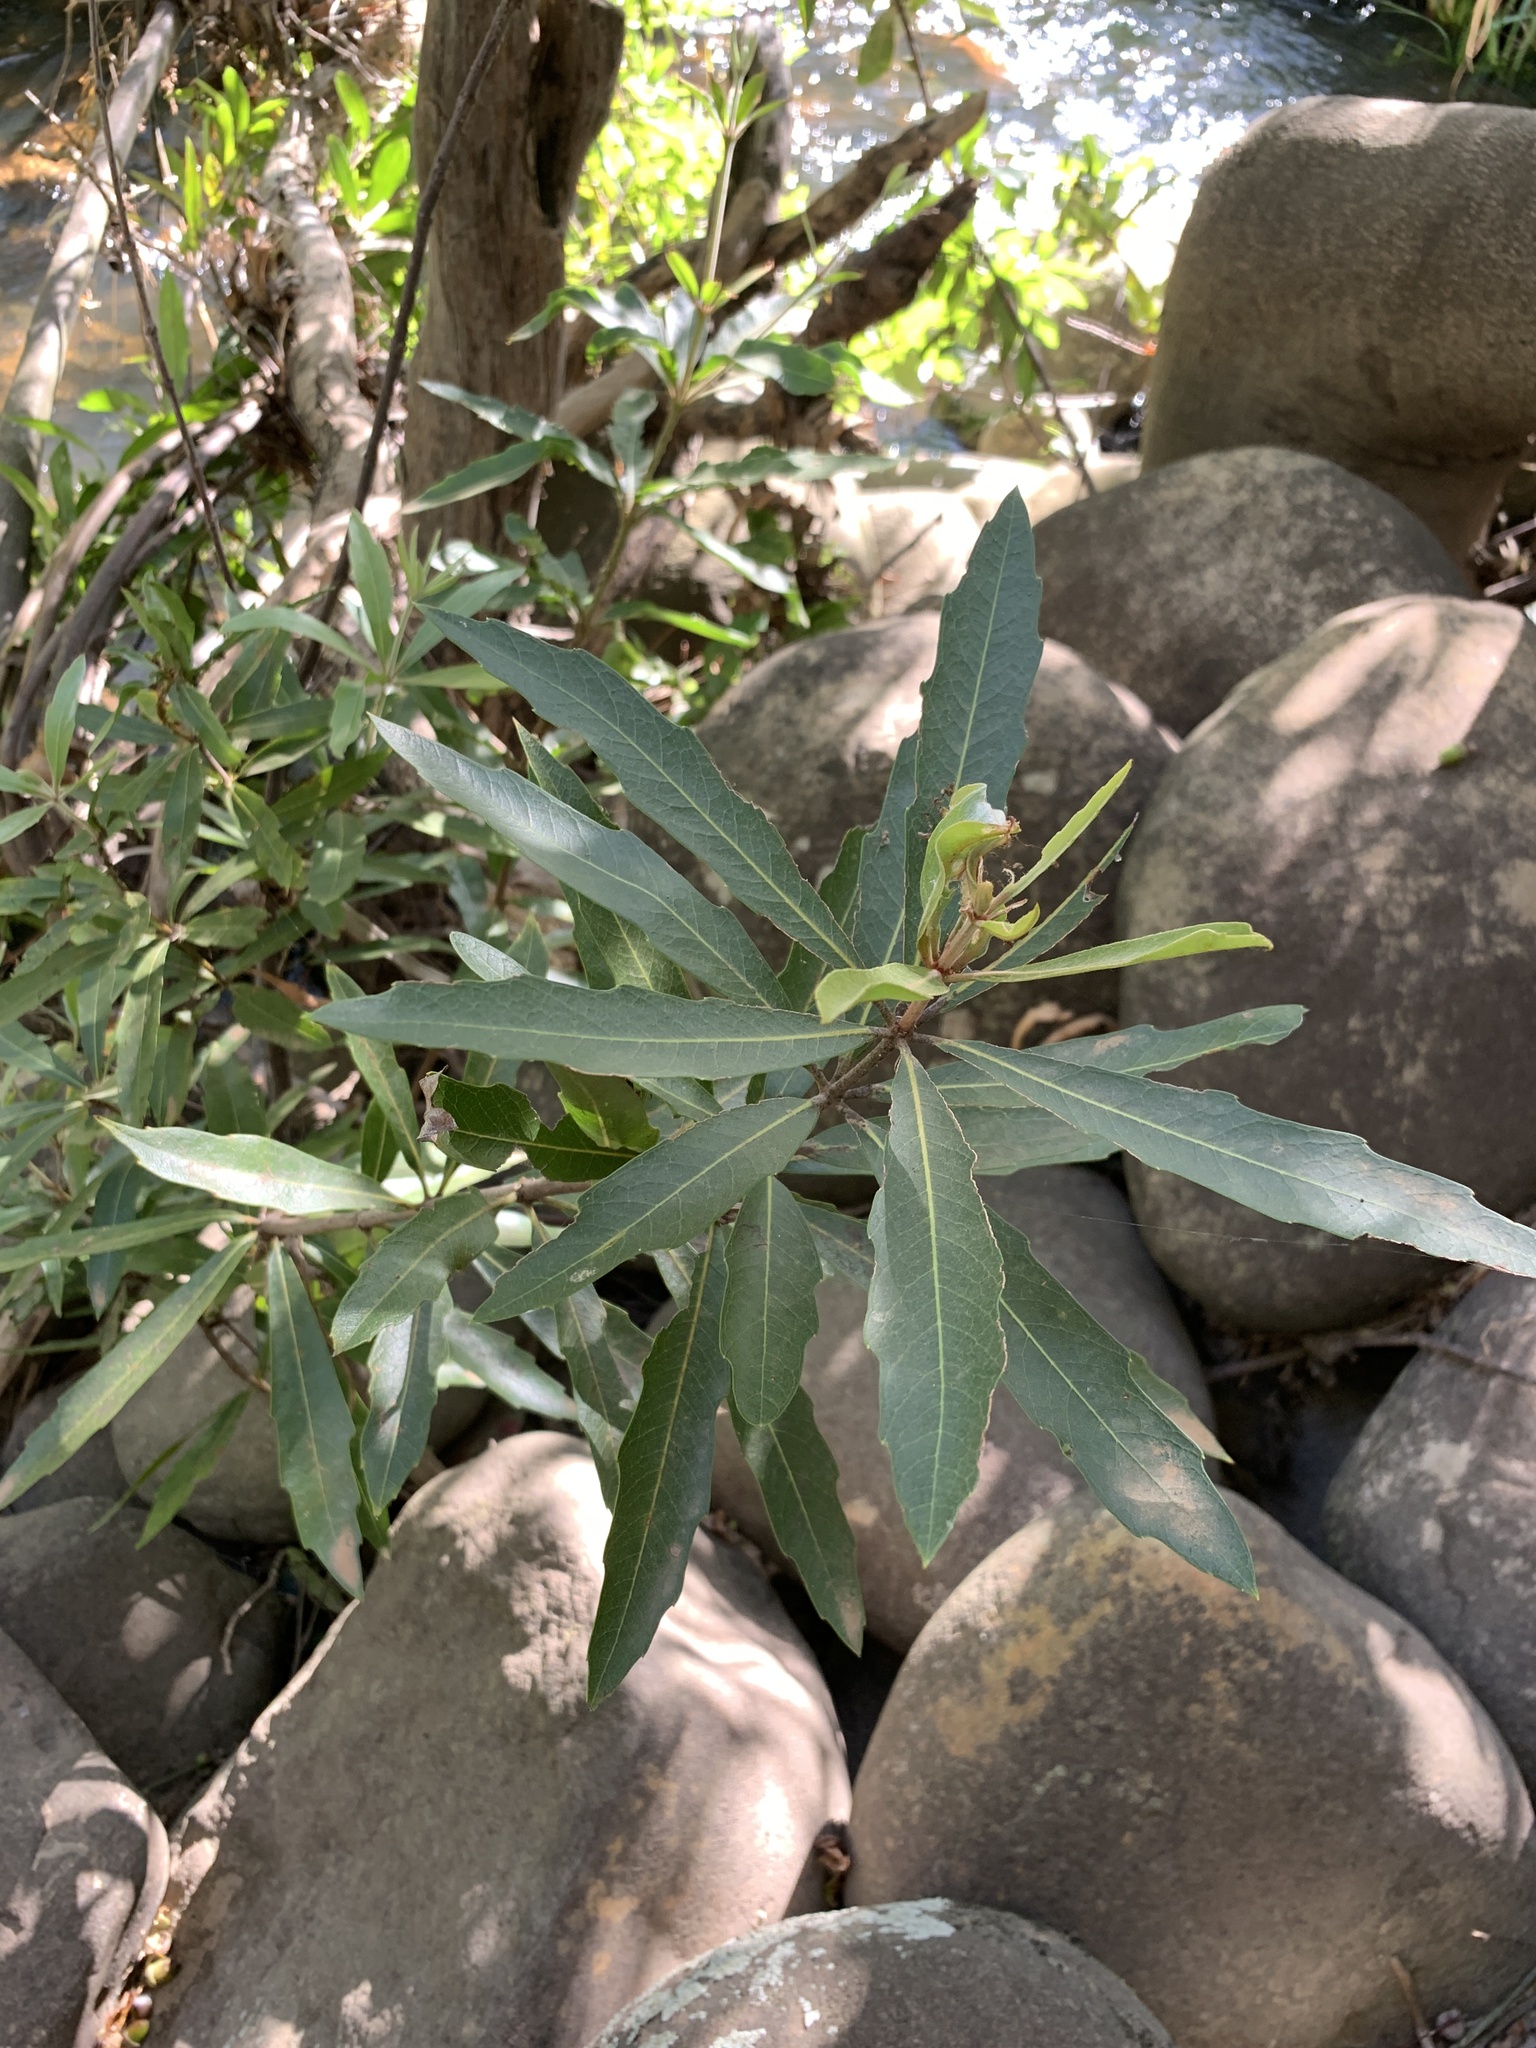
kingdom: Plantae
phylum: Tracheophyta
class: Magnoliopsida
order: Proteales
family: Proteaceae
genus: Brabejum
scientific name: Brabejum stellatifolium
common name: Wild almond
